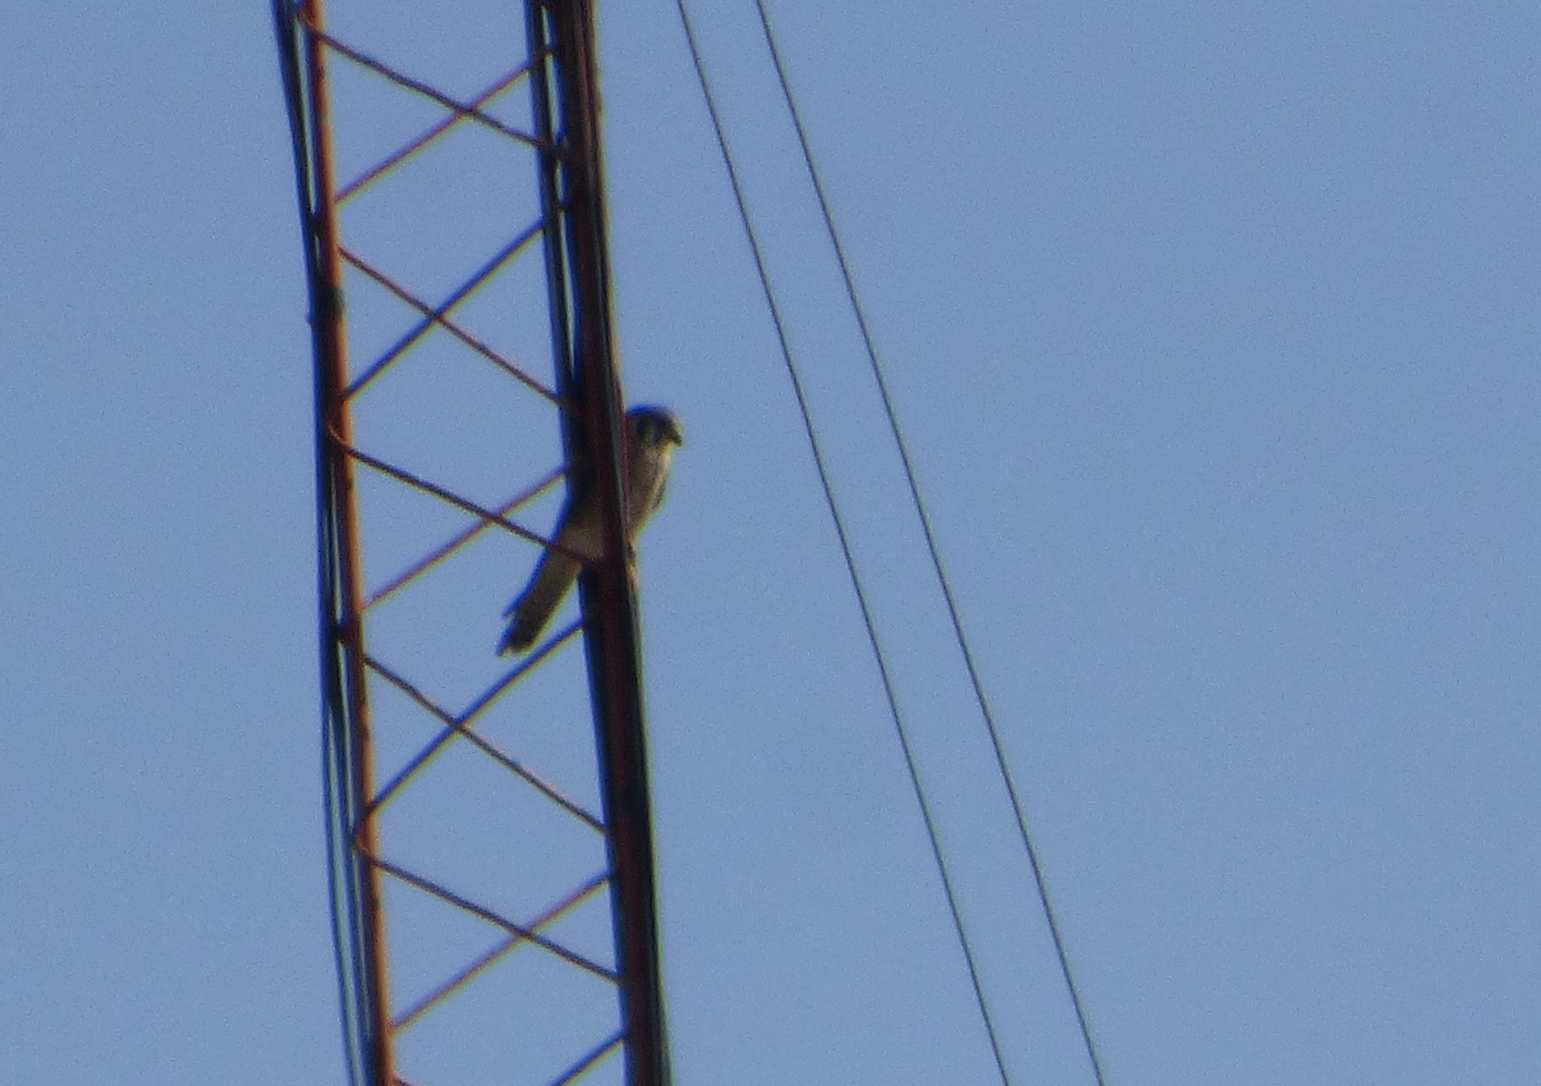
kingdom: Animalia
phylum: Chordata
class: Aves
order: Falconiformes
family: Falconidae
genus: Falco
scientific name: Falco sparverius
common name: American kestrel
